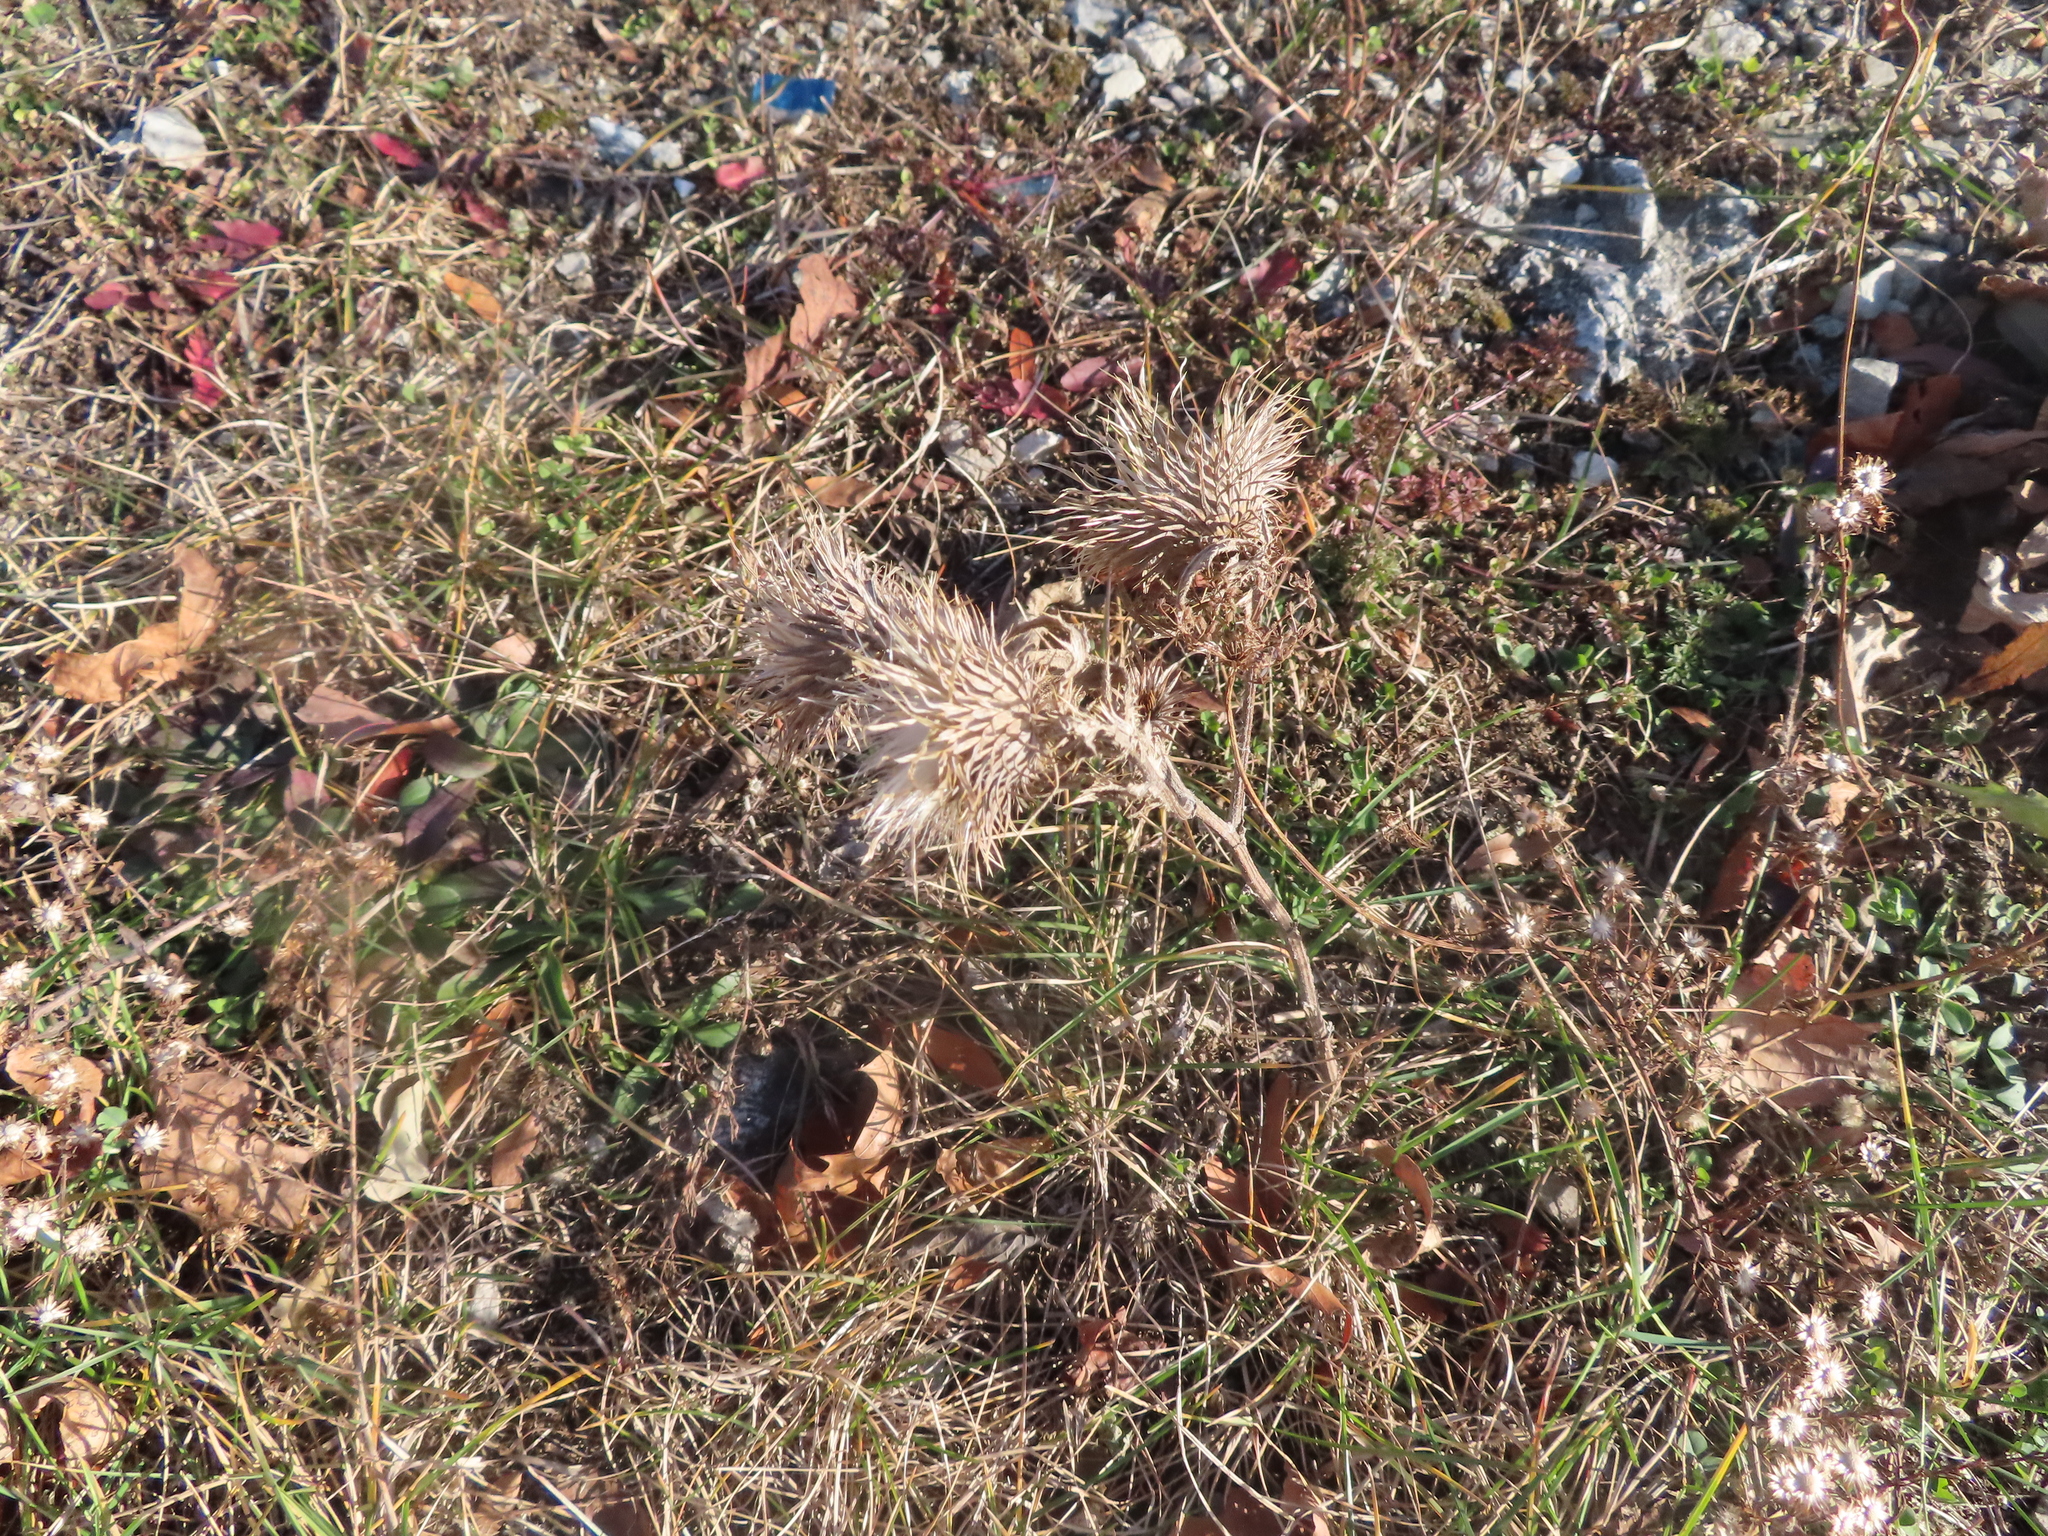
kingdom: Plantae
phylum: Tracheophyta
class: Magnoliopsida
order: Asterales
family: Asteraceae
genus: Cirsium
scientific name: Cirsium vulgare
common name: Bull thistle
